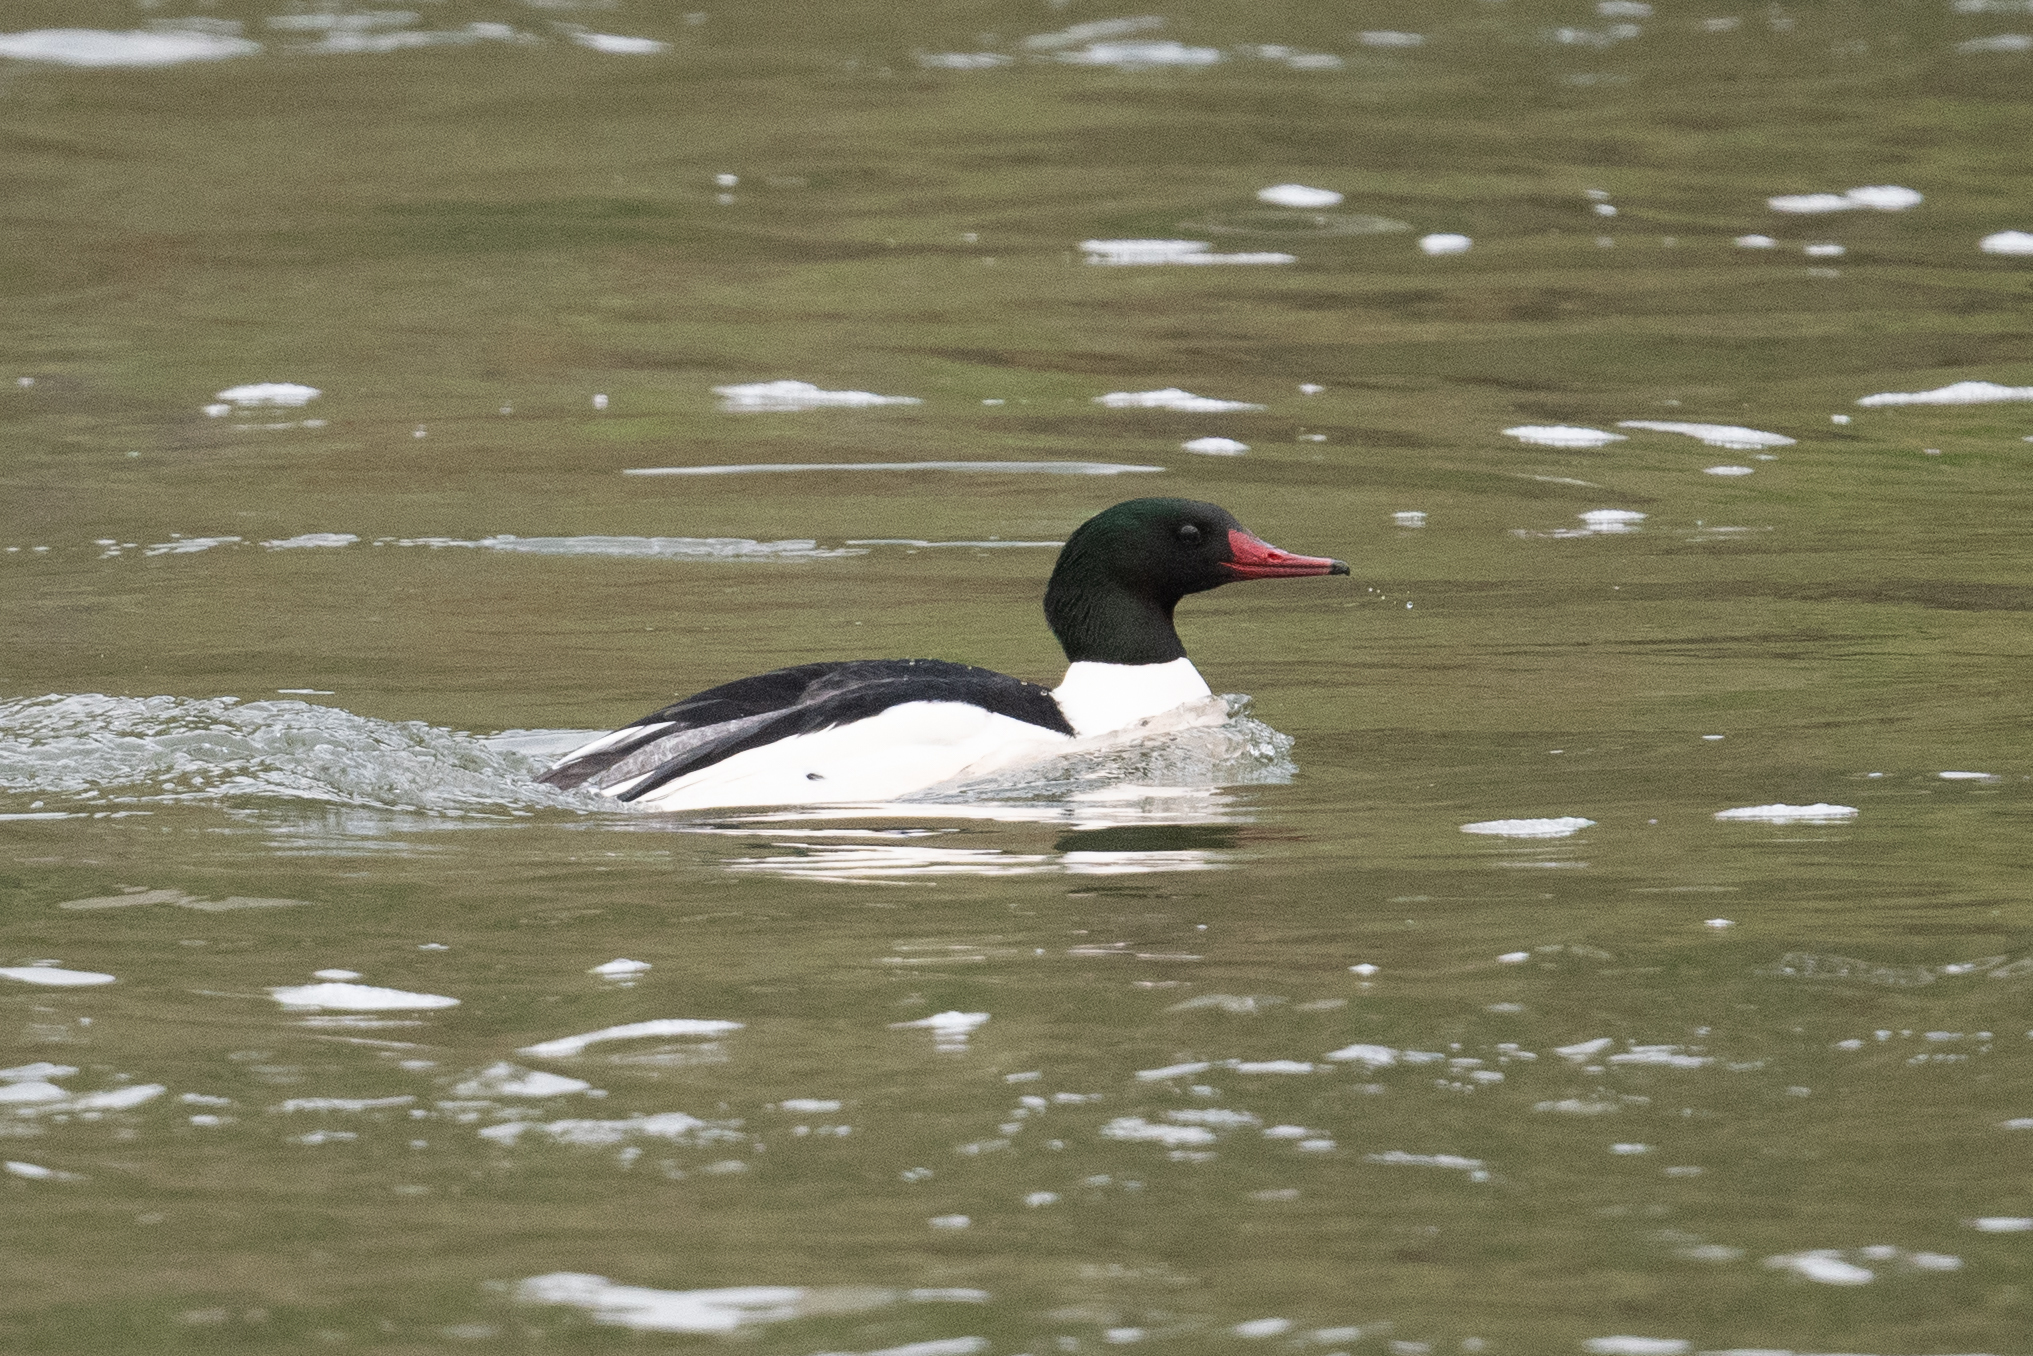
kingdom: Animalia
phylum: Chordata
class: Aves
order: Anseriformes
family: Anatidae
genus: Mergus
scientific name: Mergus merganser
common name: Common merganser
